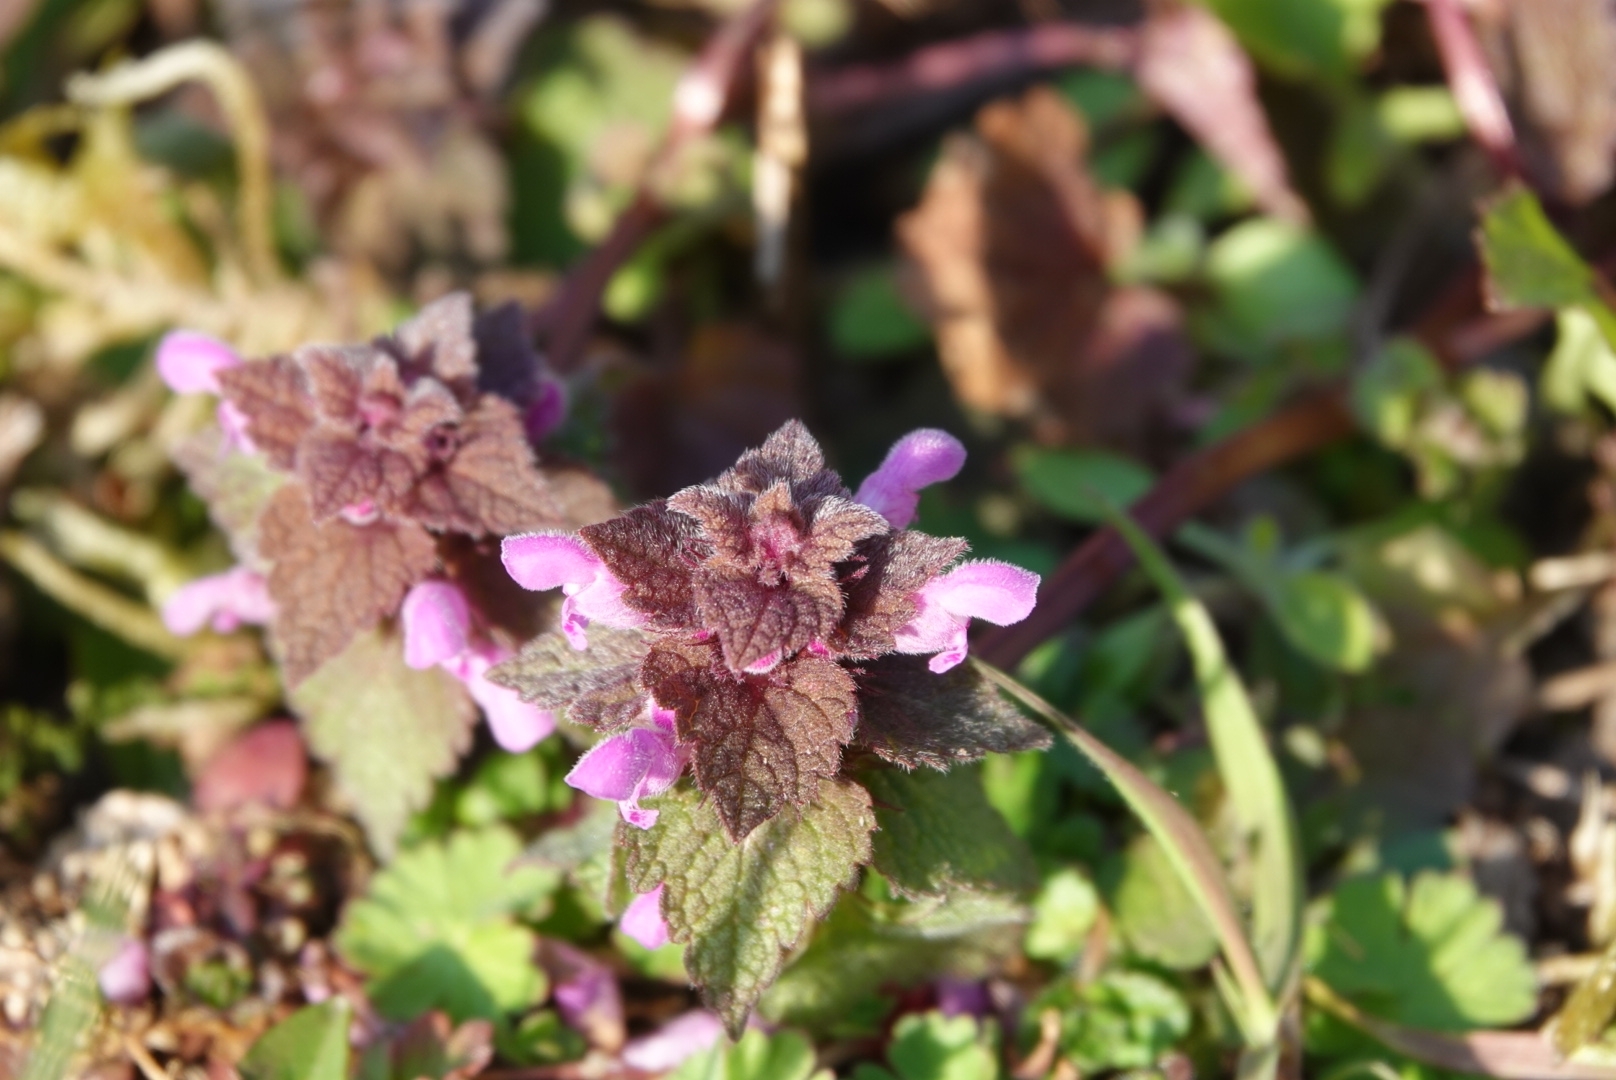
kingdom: Plantae
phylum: Tracheophyta
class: Magnoliopsida
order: Lamiales
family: Lamiaceae
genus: Lamium
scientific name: Lamium purpureum
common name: Red dead-nettle
